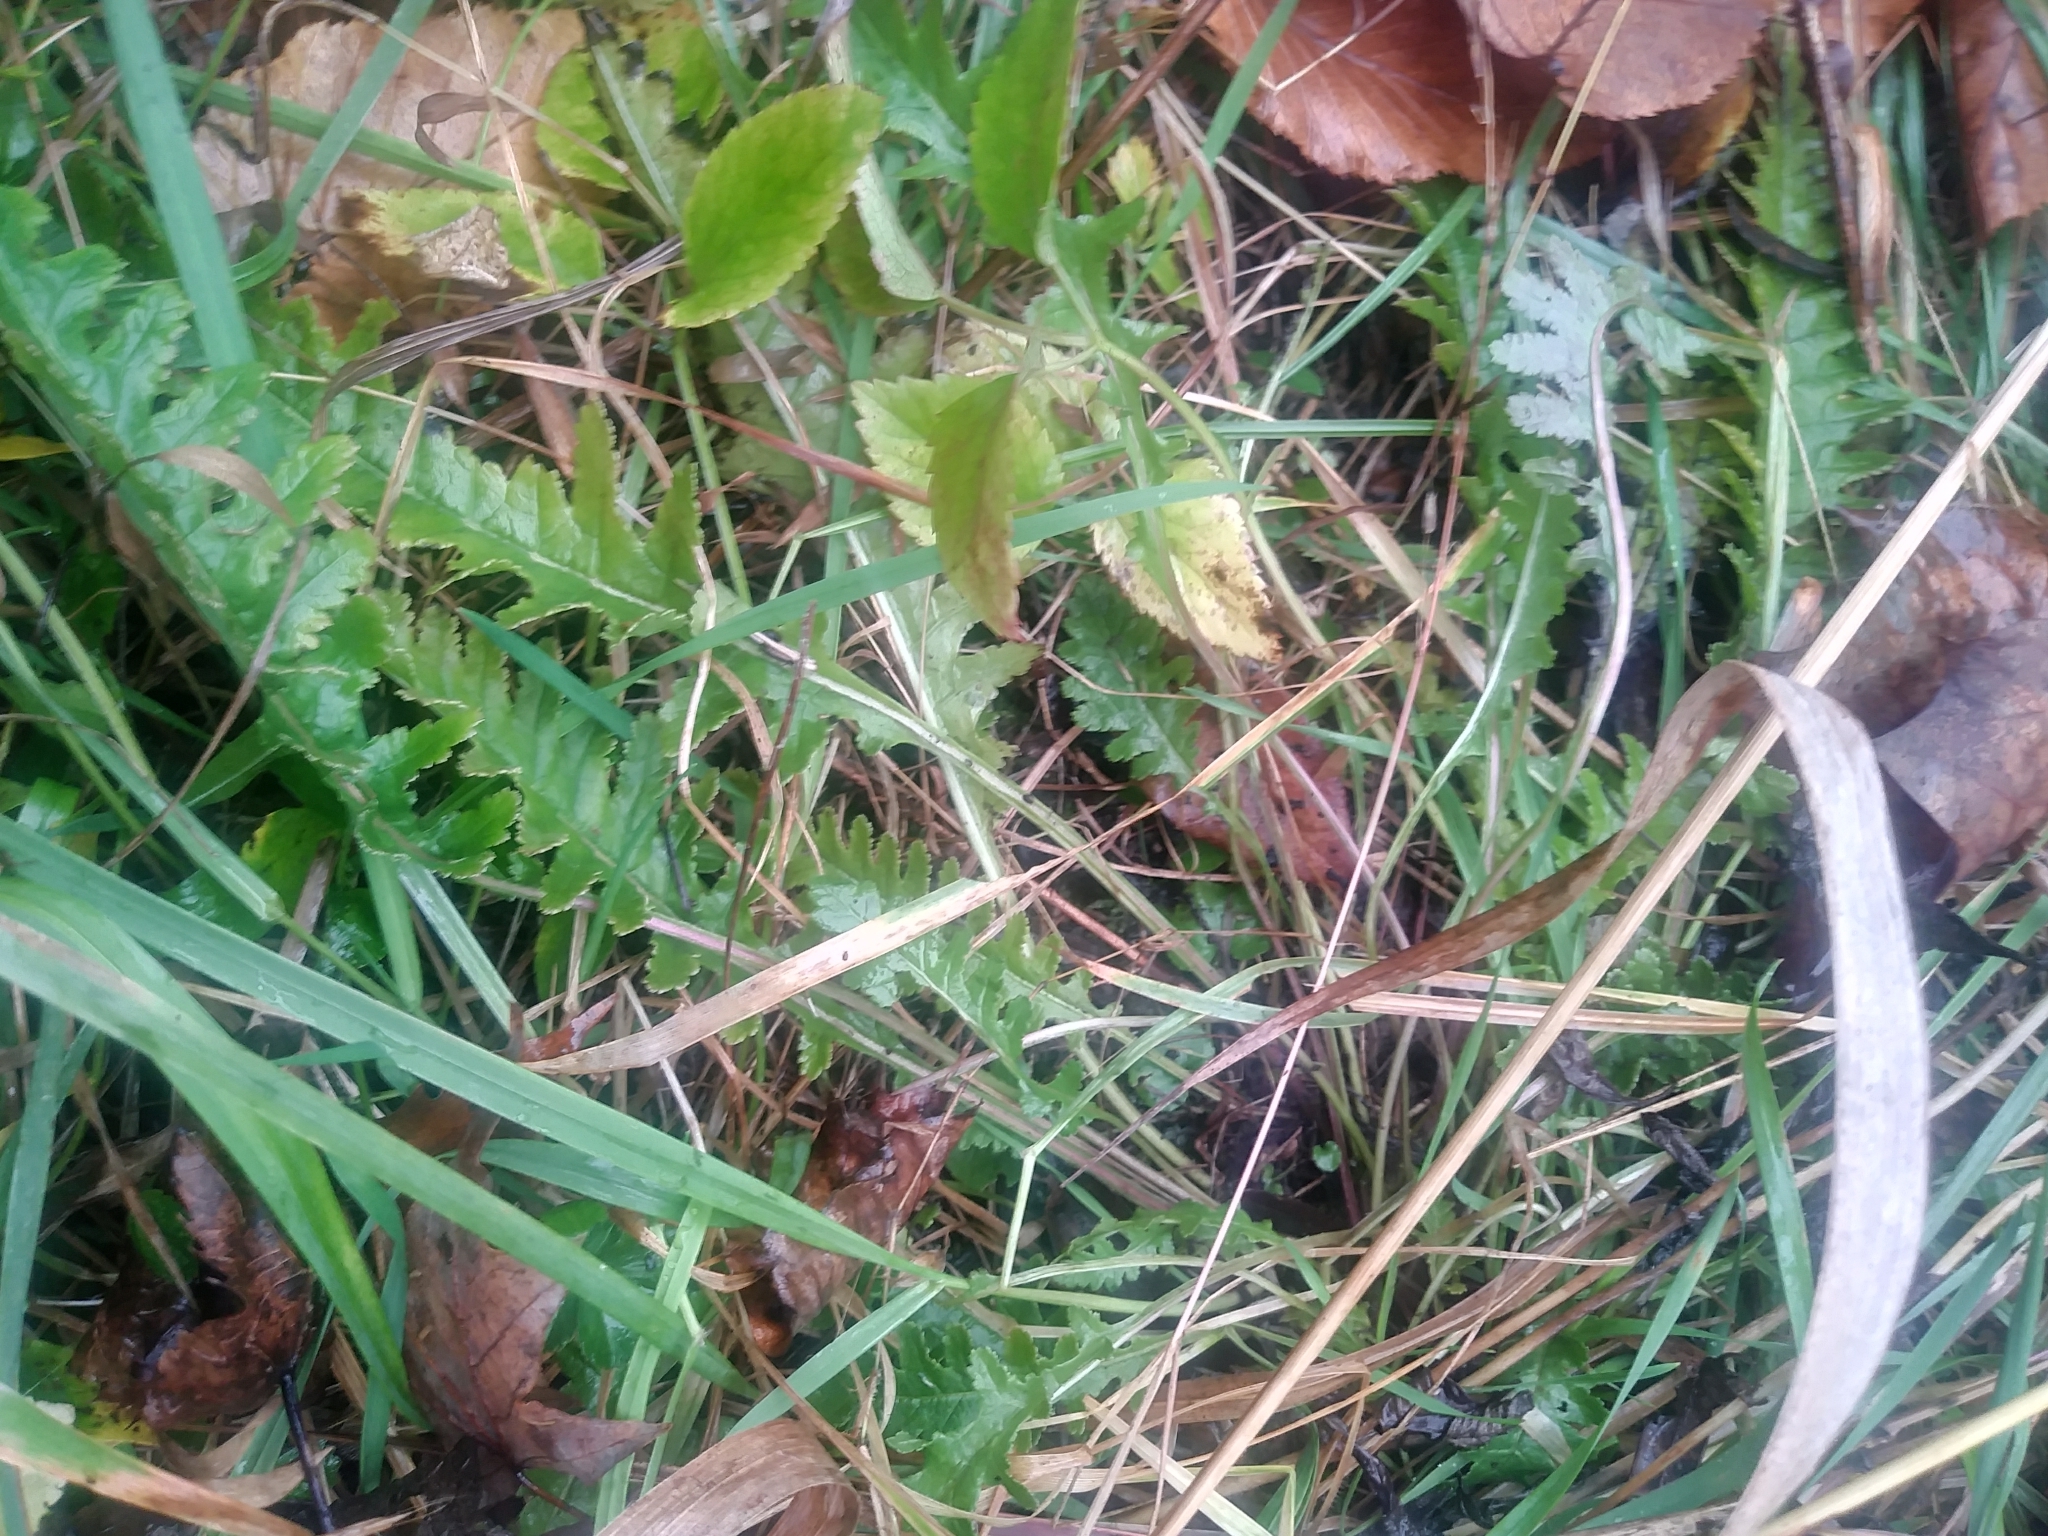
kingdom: Plantae
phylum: Tracheophyta
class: Magnoliopsida
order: Lamiales
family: Orobanchaceae
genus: Pedicularis
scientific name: Pedicularis canadensis
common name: Early lousewort
